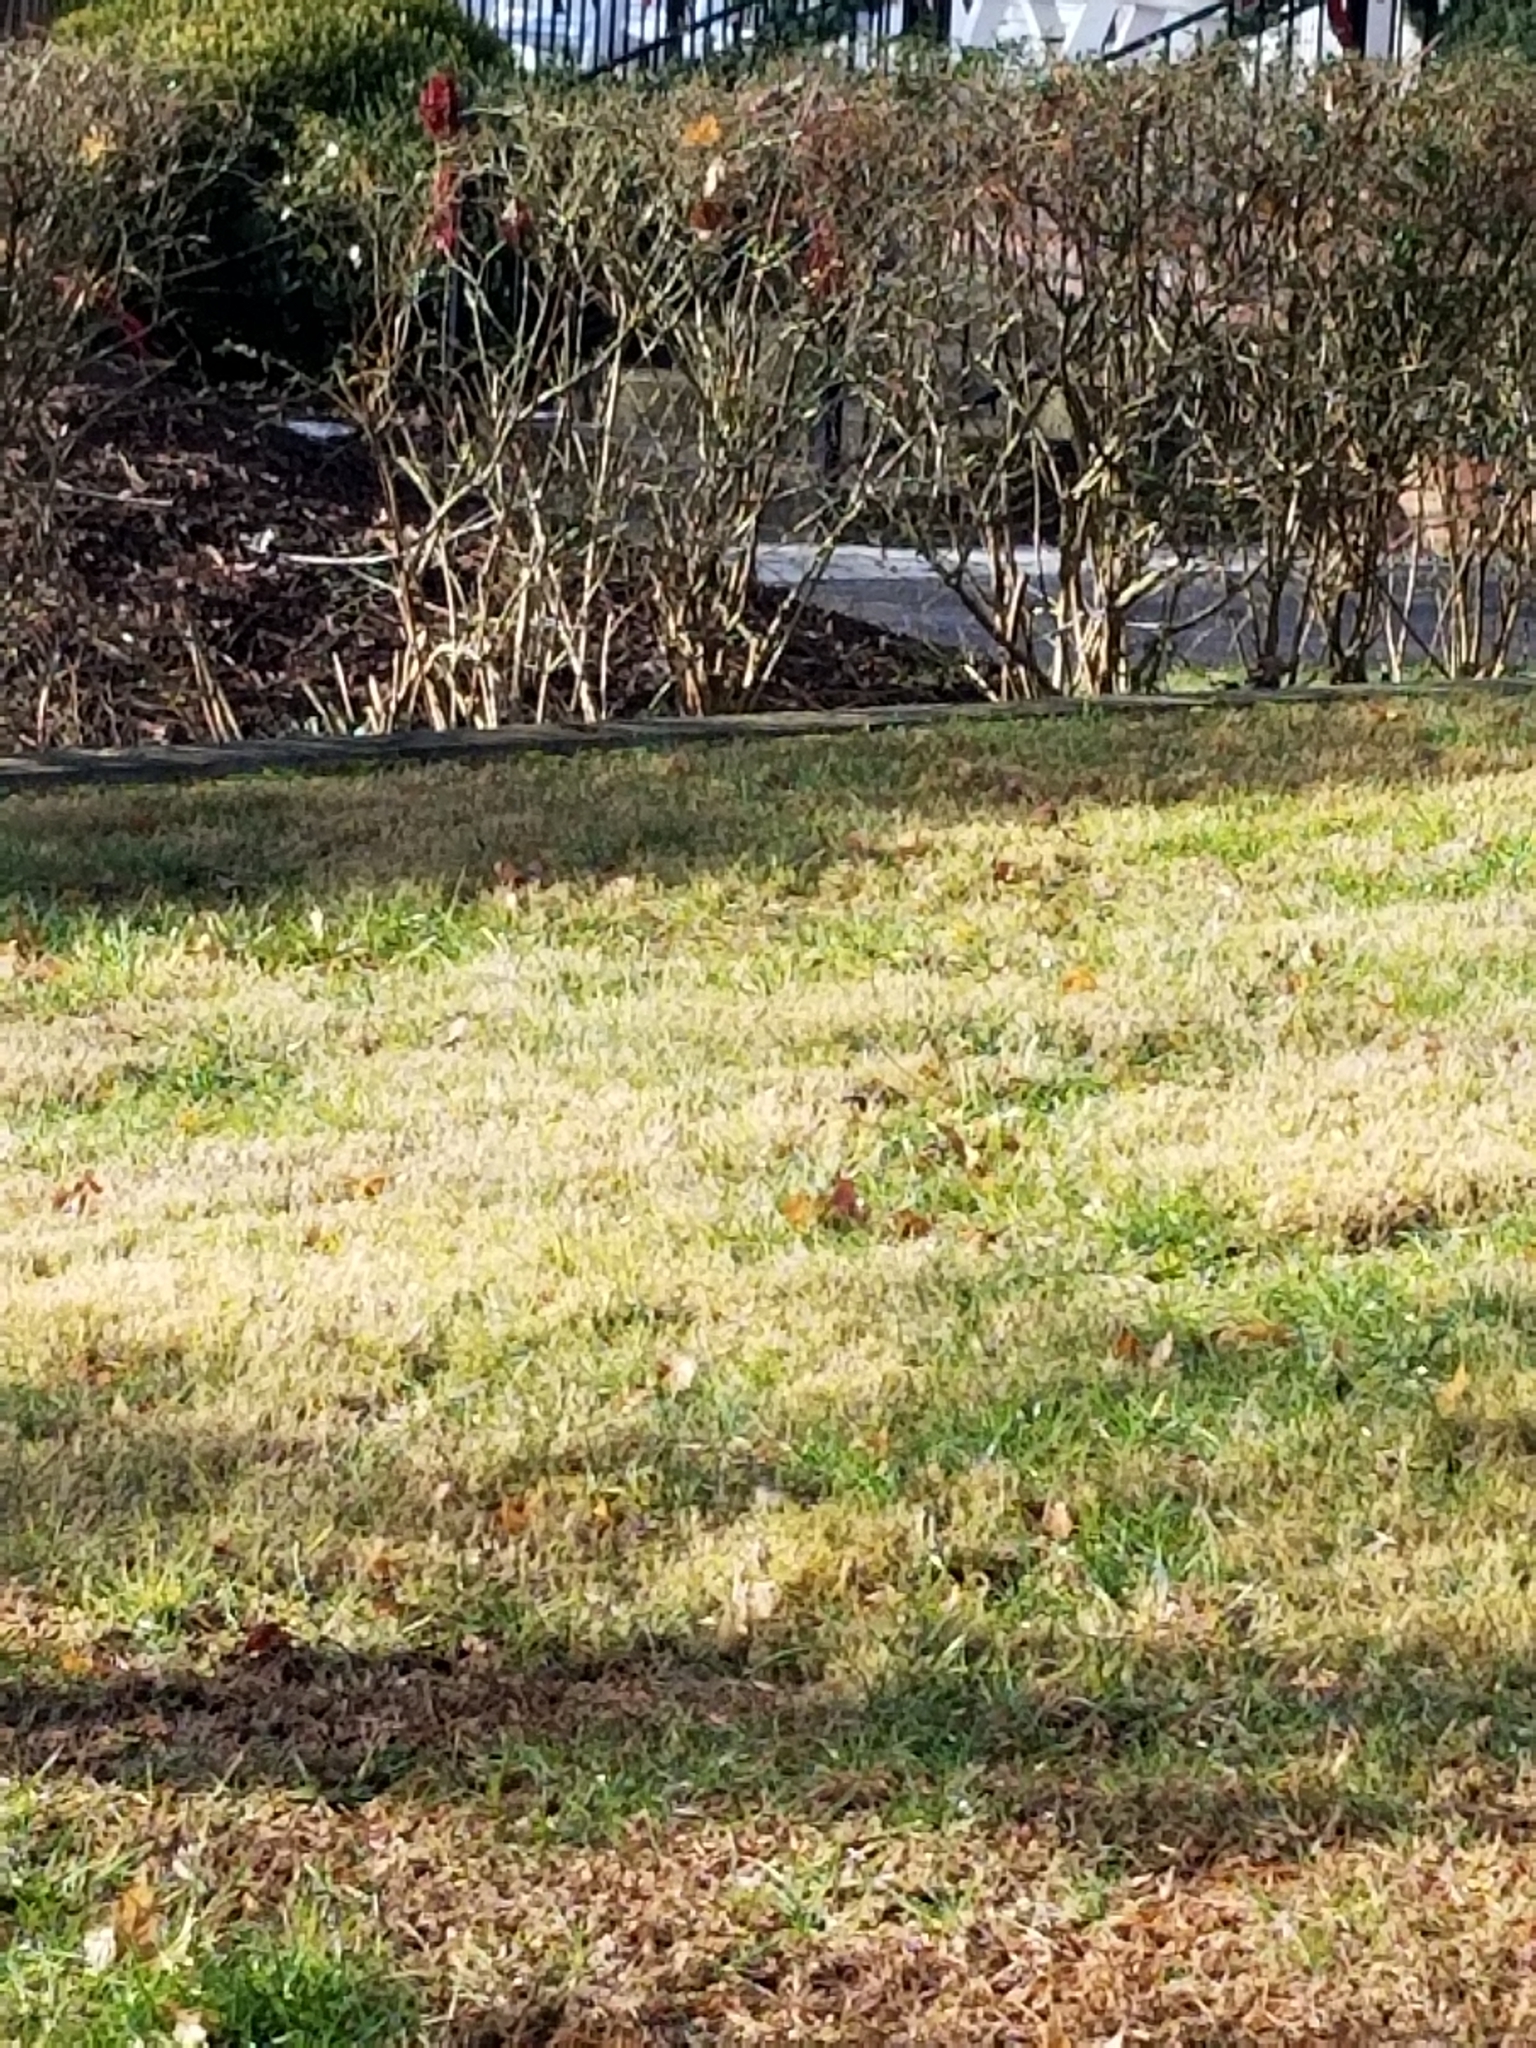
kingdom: Animalia
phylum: Chordata
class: Aves
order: Passeriformes
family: Passerellidae
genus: Melospiza
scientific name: Melospiza melodia
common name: Song sparrow
